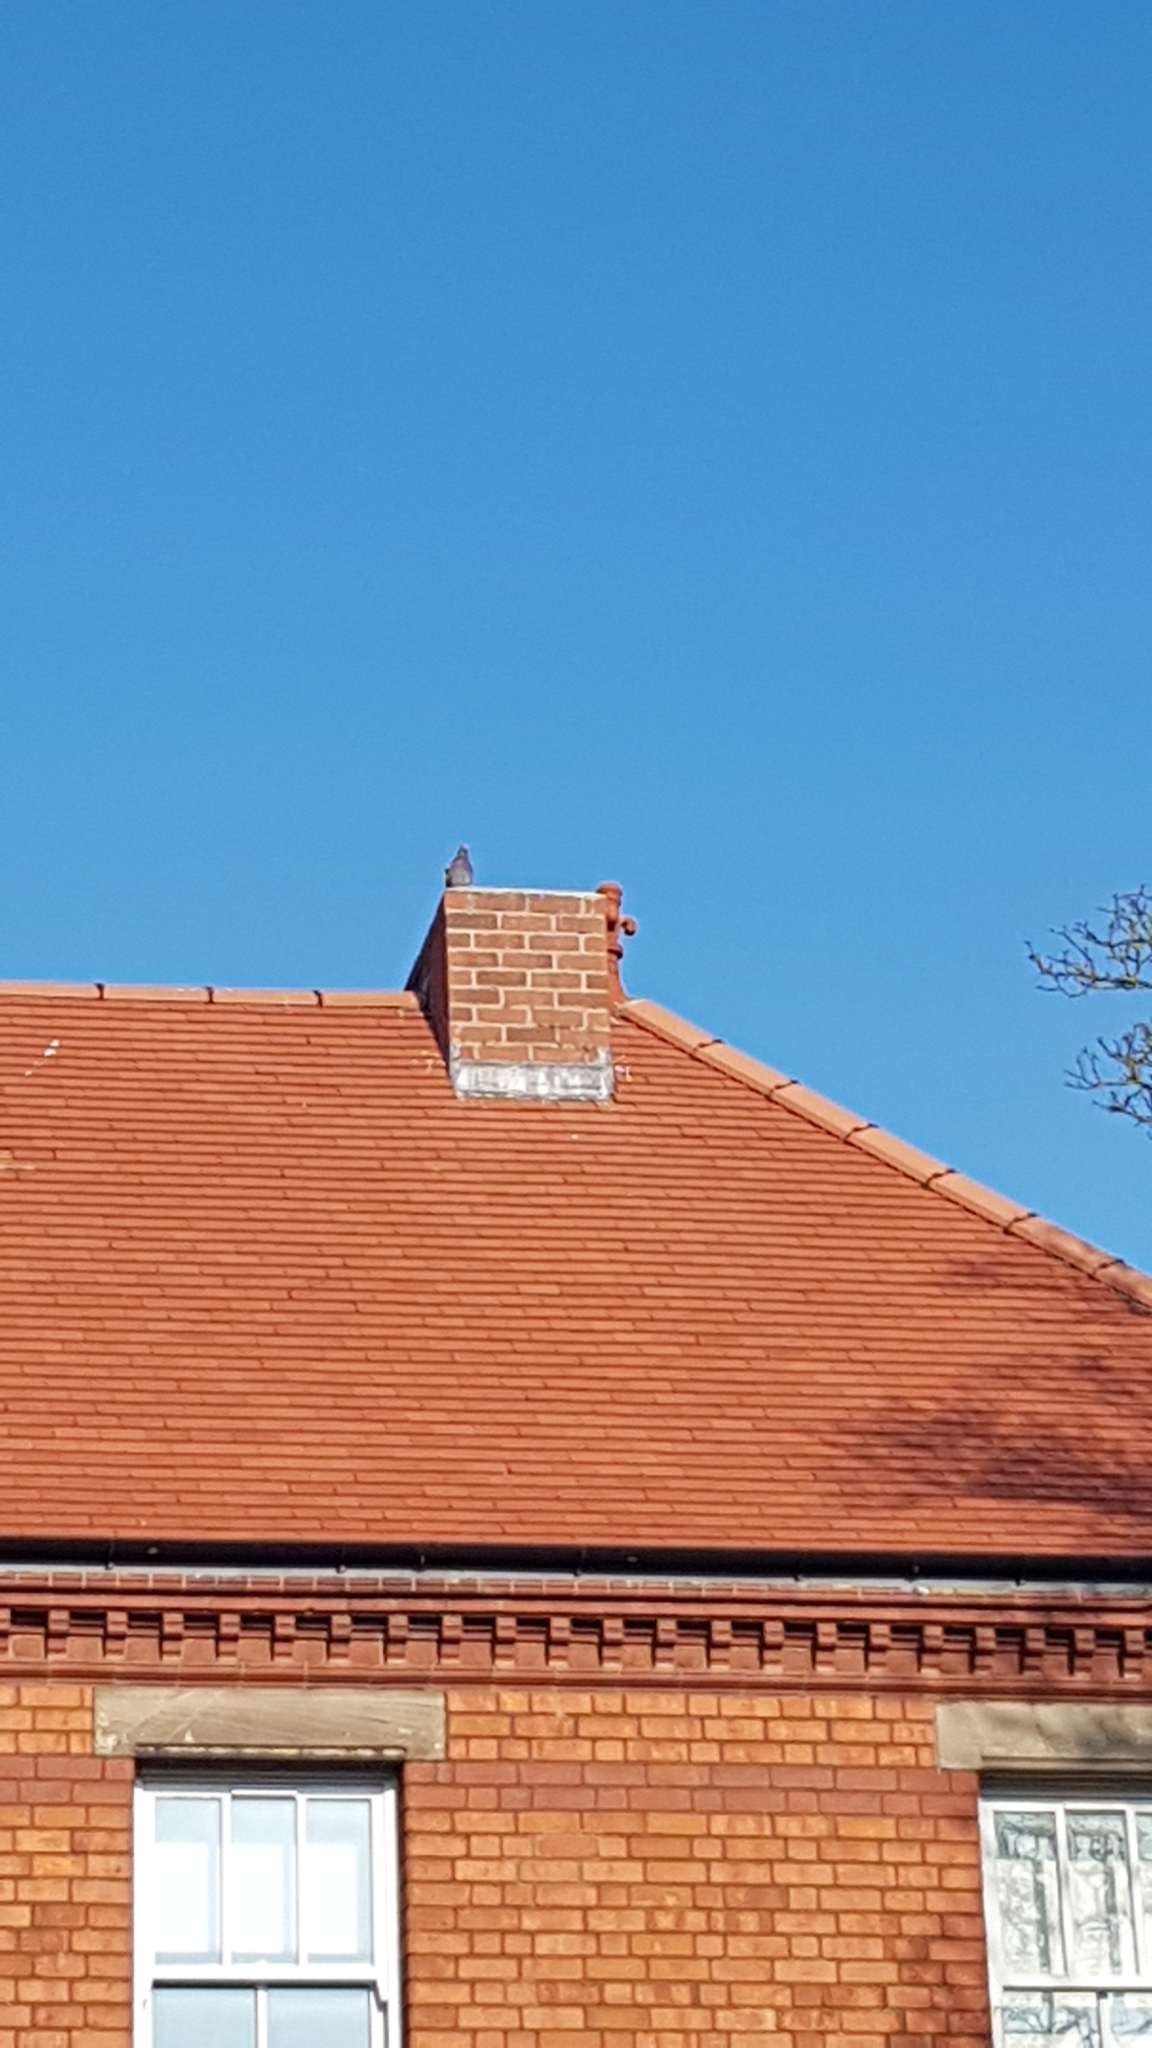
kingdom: Animalia
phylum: Chordata
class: Aves
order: Columbiformes
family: Columbidae
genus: Columba
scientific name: Columba livia
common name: Rock pigeon
